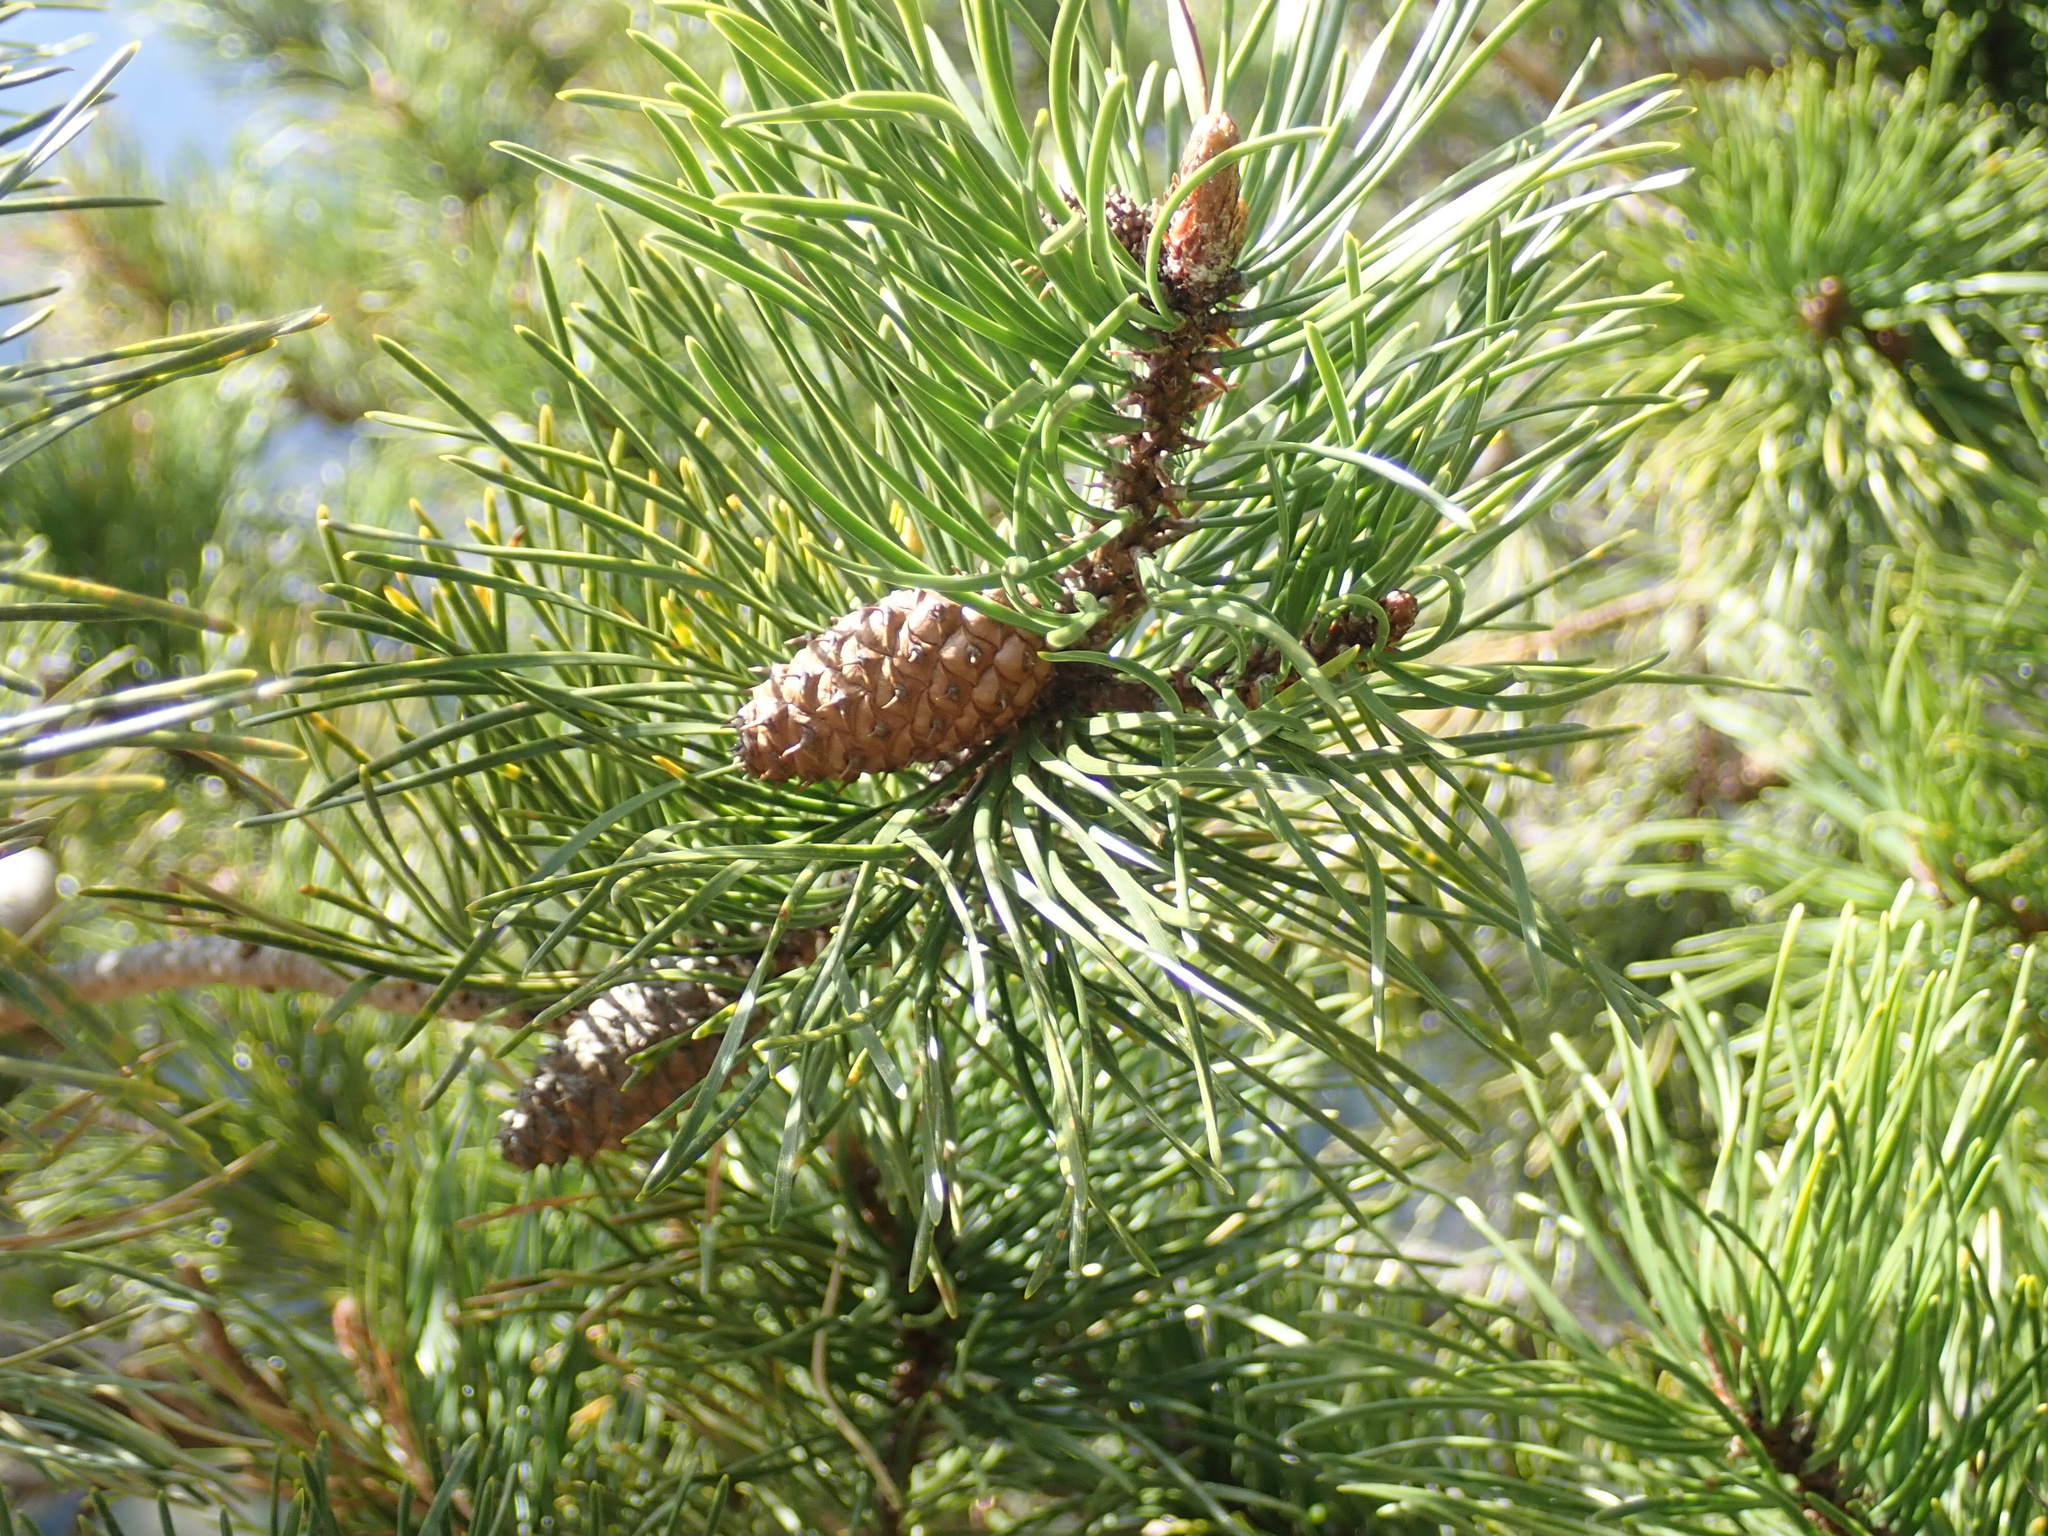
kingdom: Plantae
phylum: Tracheophyta
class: Pinopsida
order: Pinales
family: Pinaceae
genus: Pinus
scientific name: Pinus contorta
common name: Lodgepole pine
